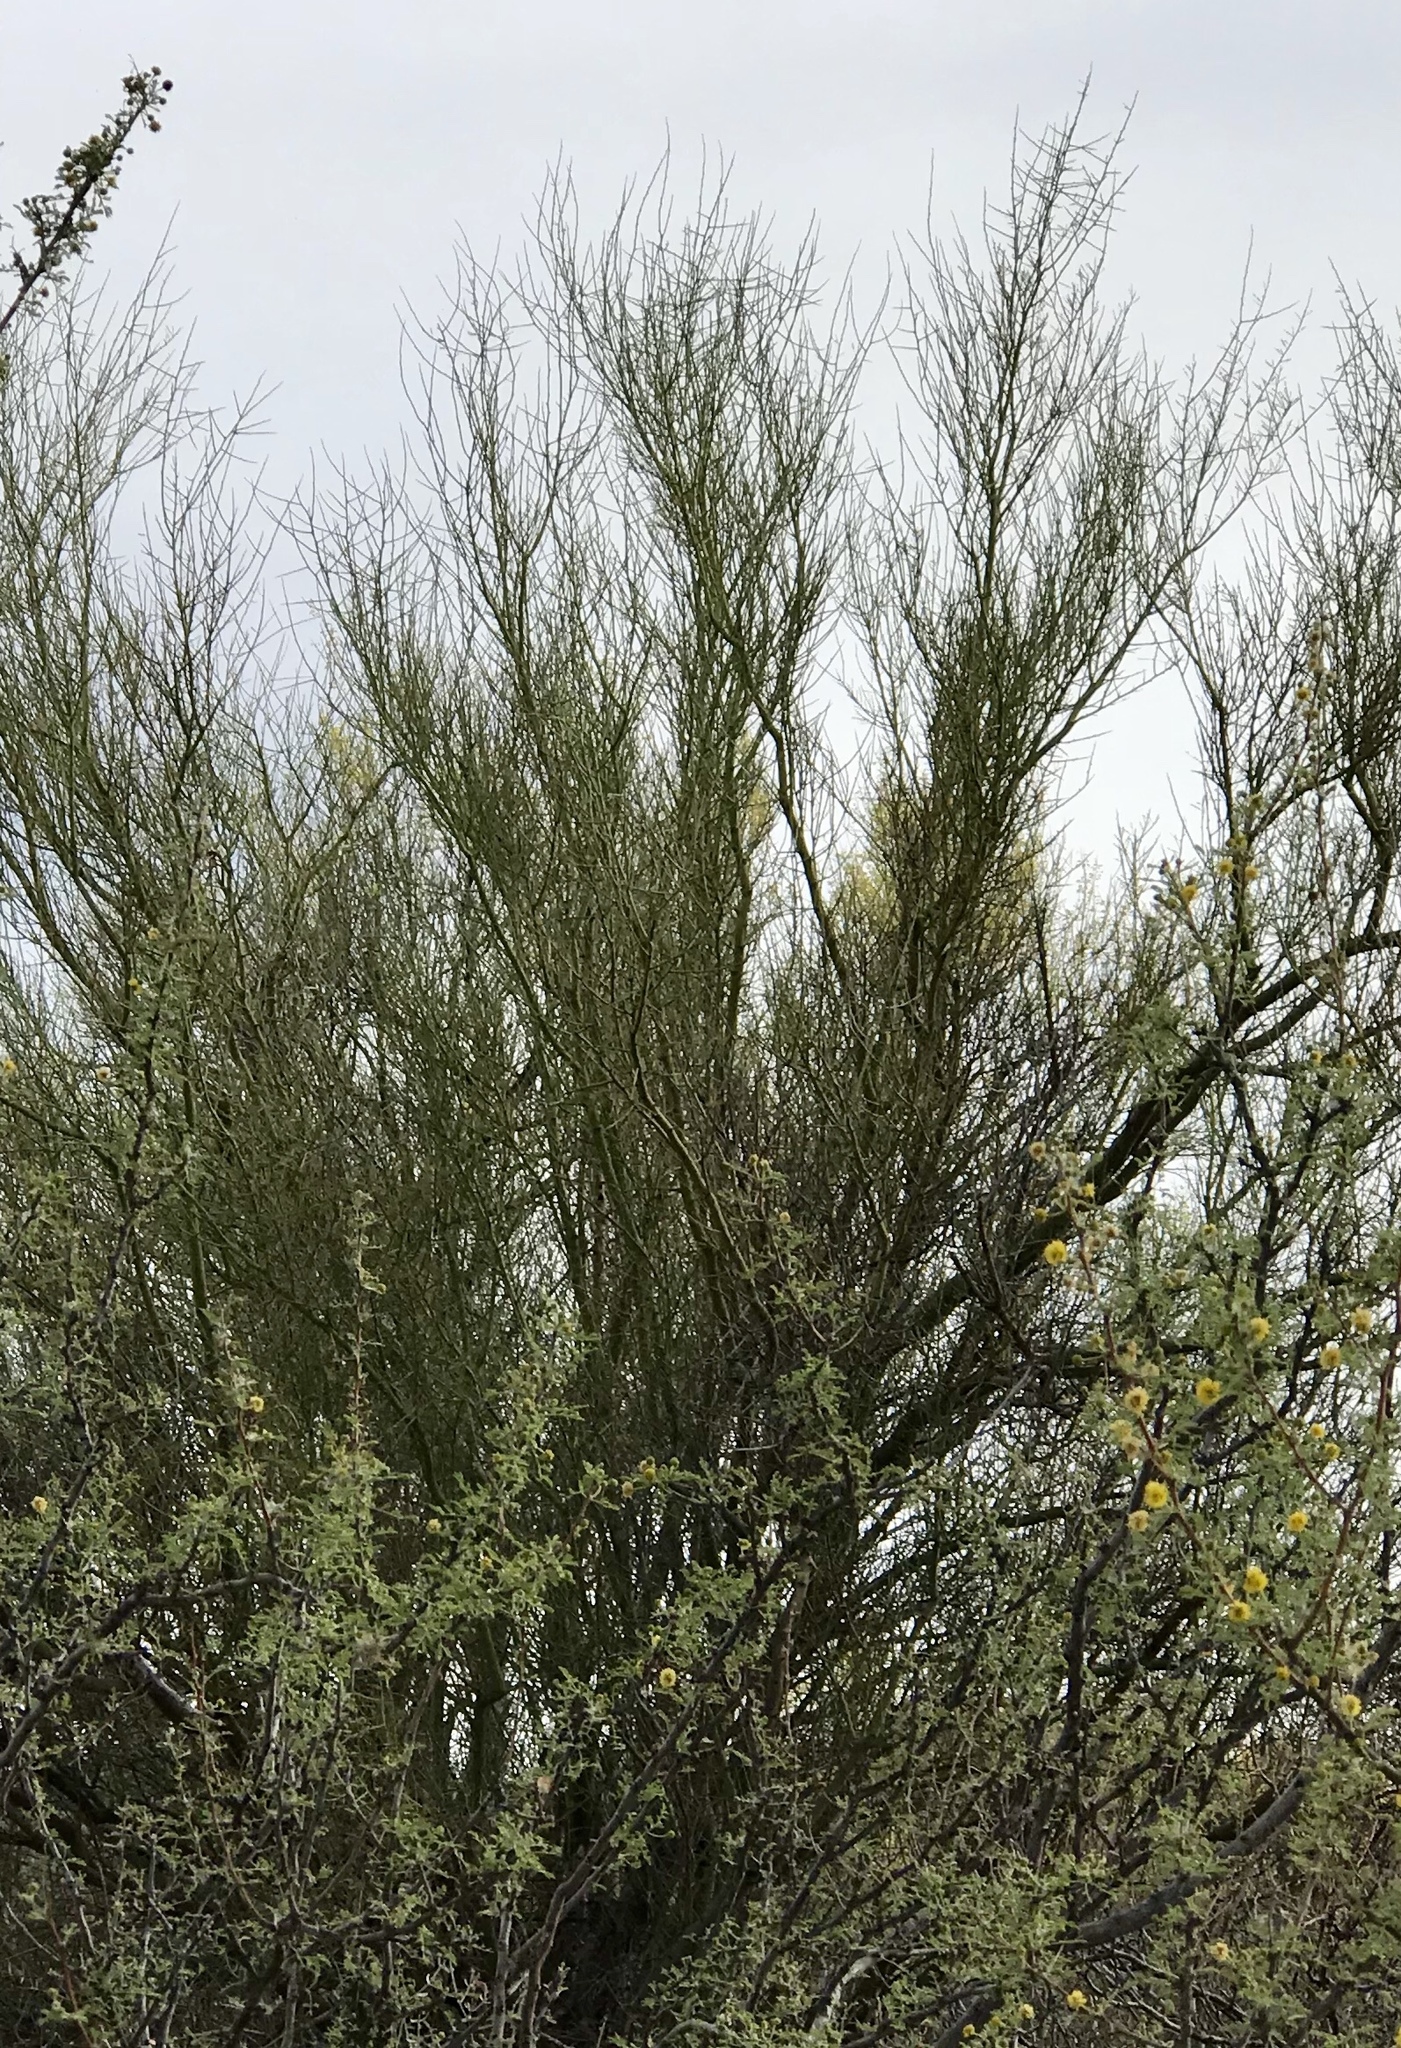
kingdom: Plantae
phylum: Tracheophyta
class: Magnoliopsida
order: Fabales
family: Fabaceae
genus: Parkinsonia
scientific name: Parkinsonia microphylla
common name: Yellow paloverde
